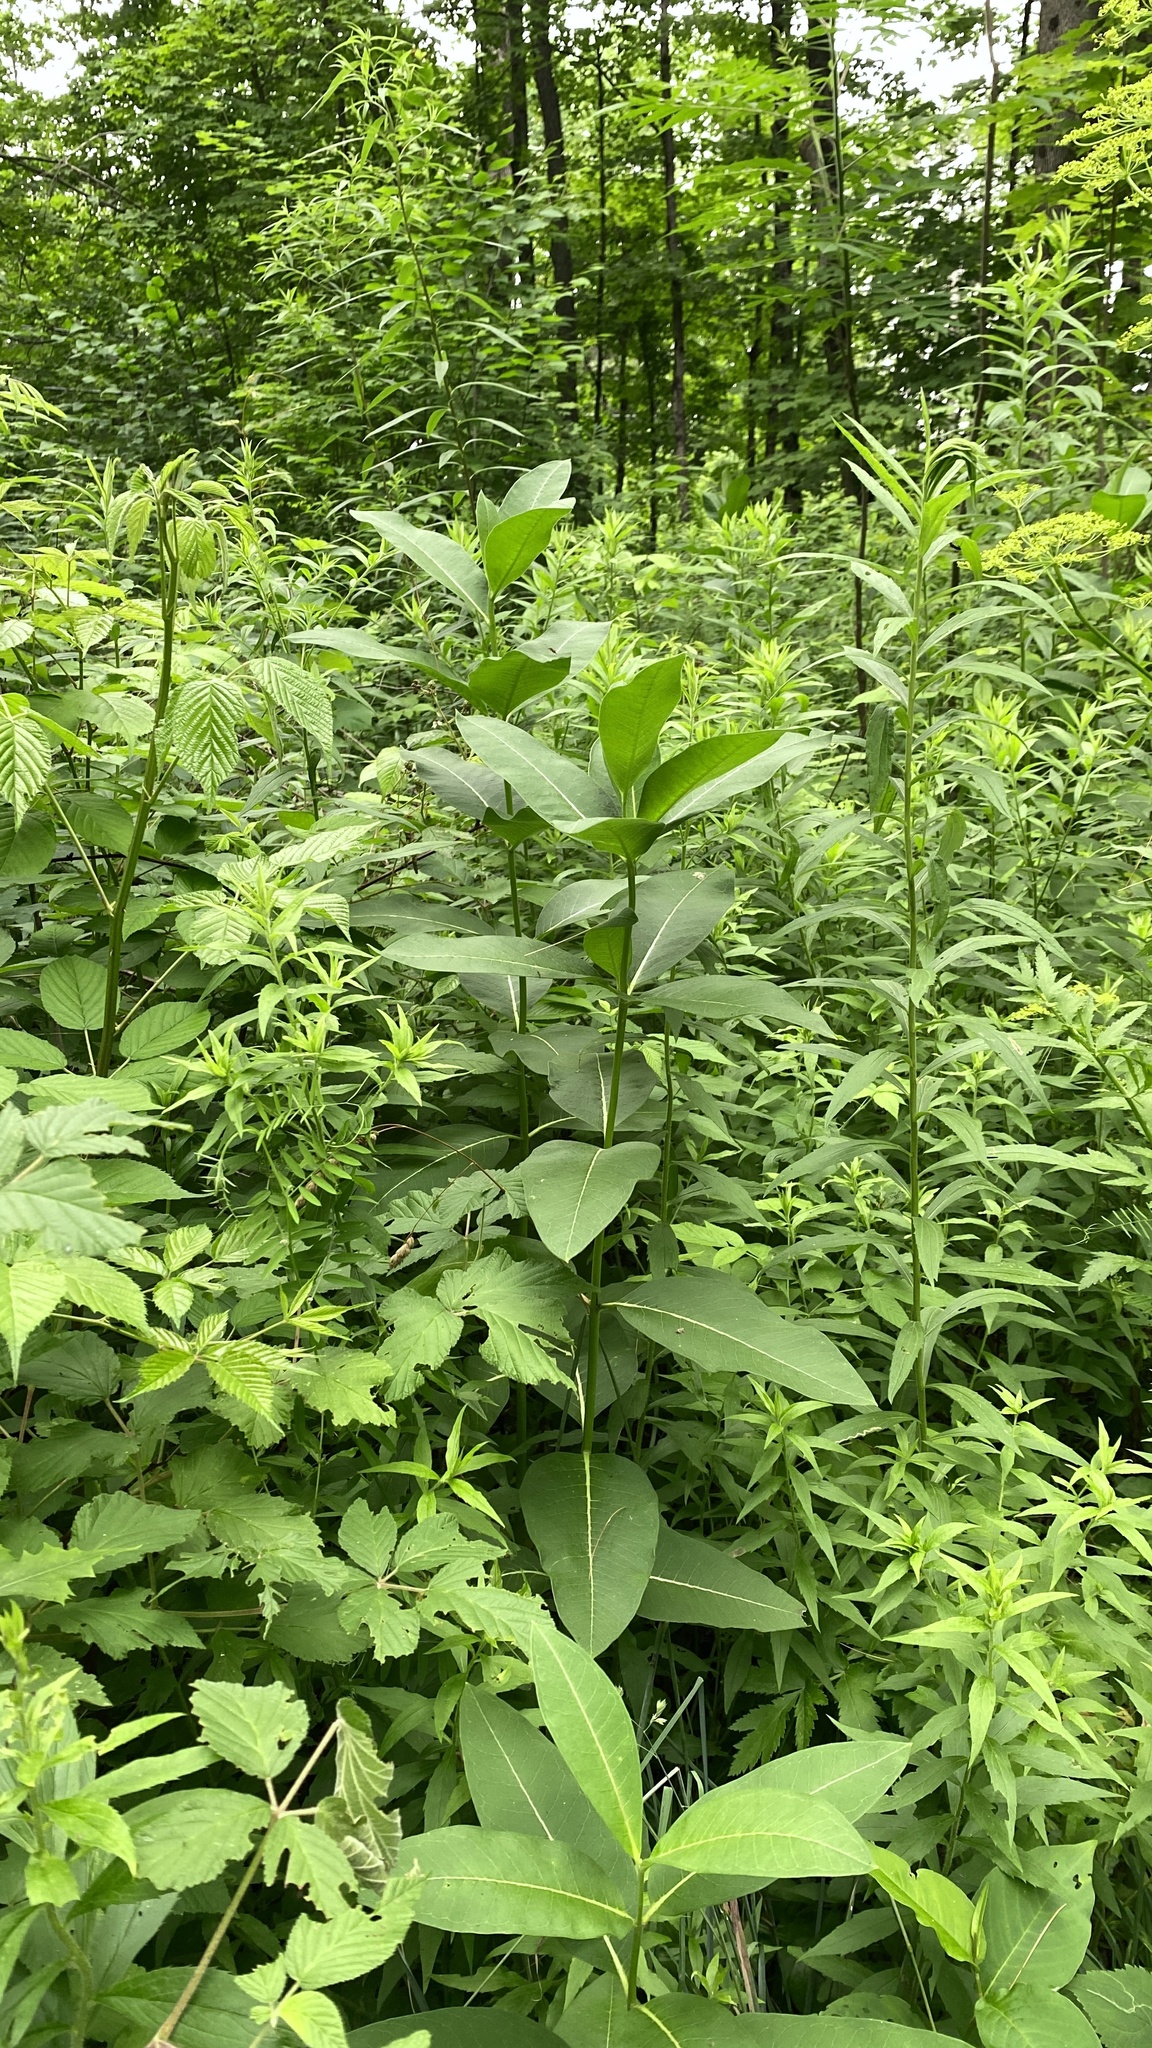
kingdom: Plantae
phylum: Tracheophyta
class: Magnoliopsida
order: Gentianales
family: Apocynaceae
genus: Asclepias
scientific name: Asclepias syriaca
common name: Common milkweed
